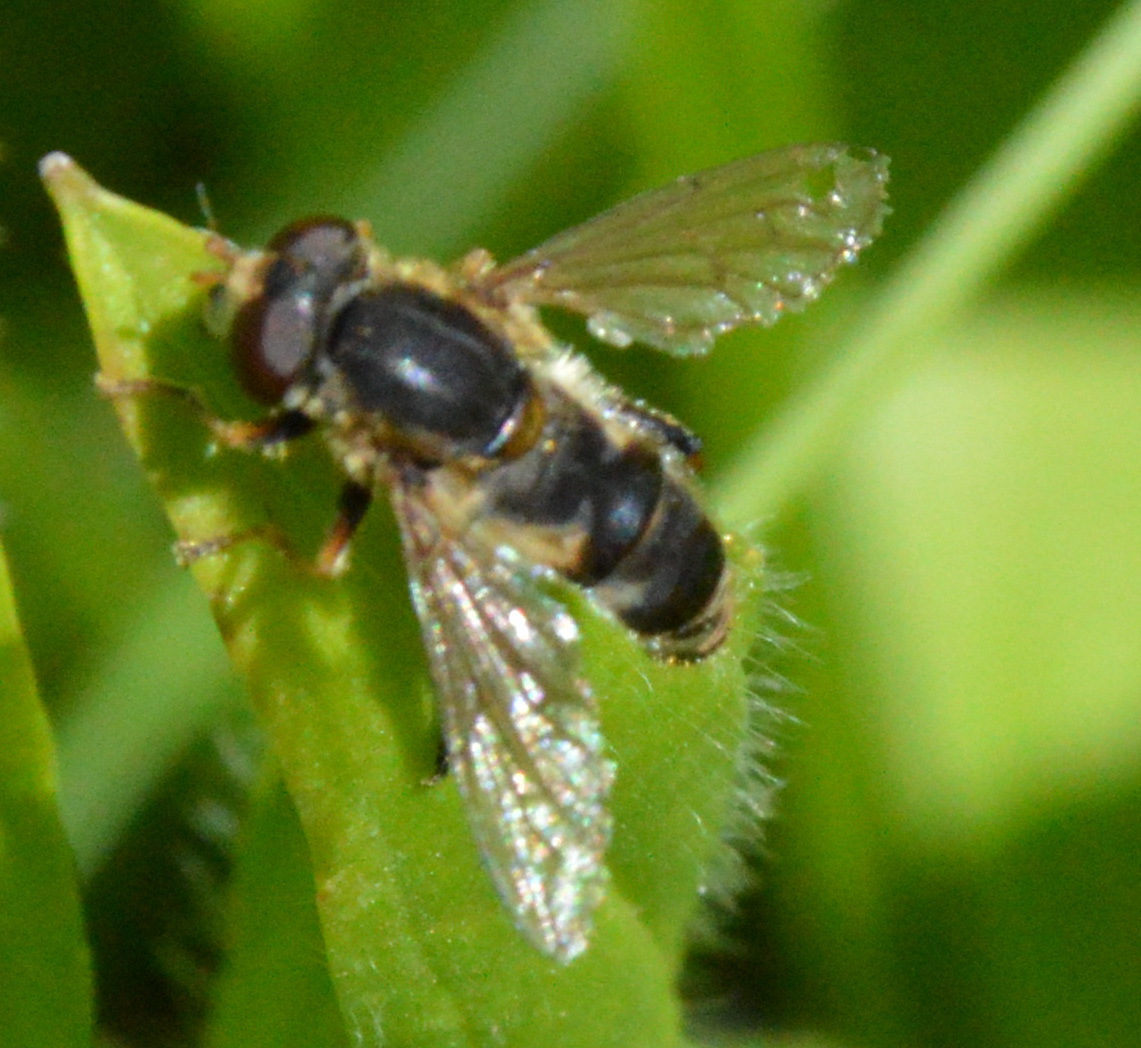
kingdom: Animalia
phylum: Arthropoda
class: Insecta
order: Diptera
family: Syrphidae
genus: Anasimyia
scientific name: Anasimyia bilinearis
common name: Two-lined swamp fly
